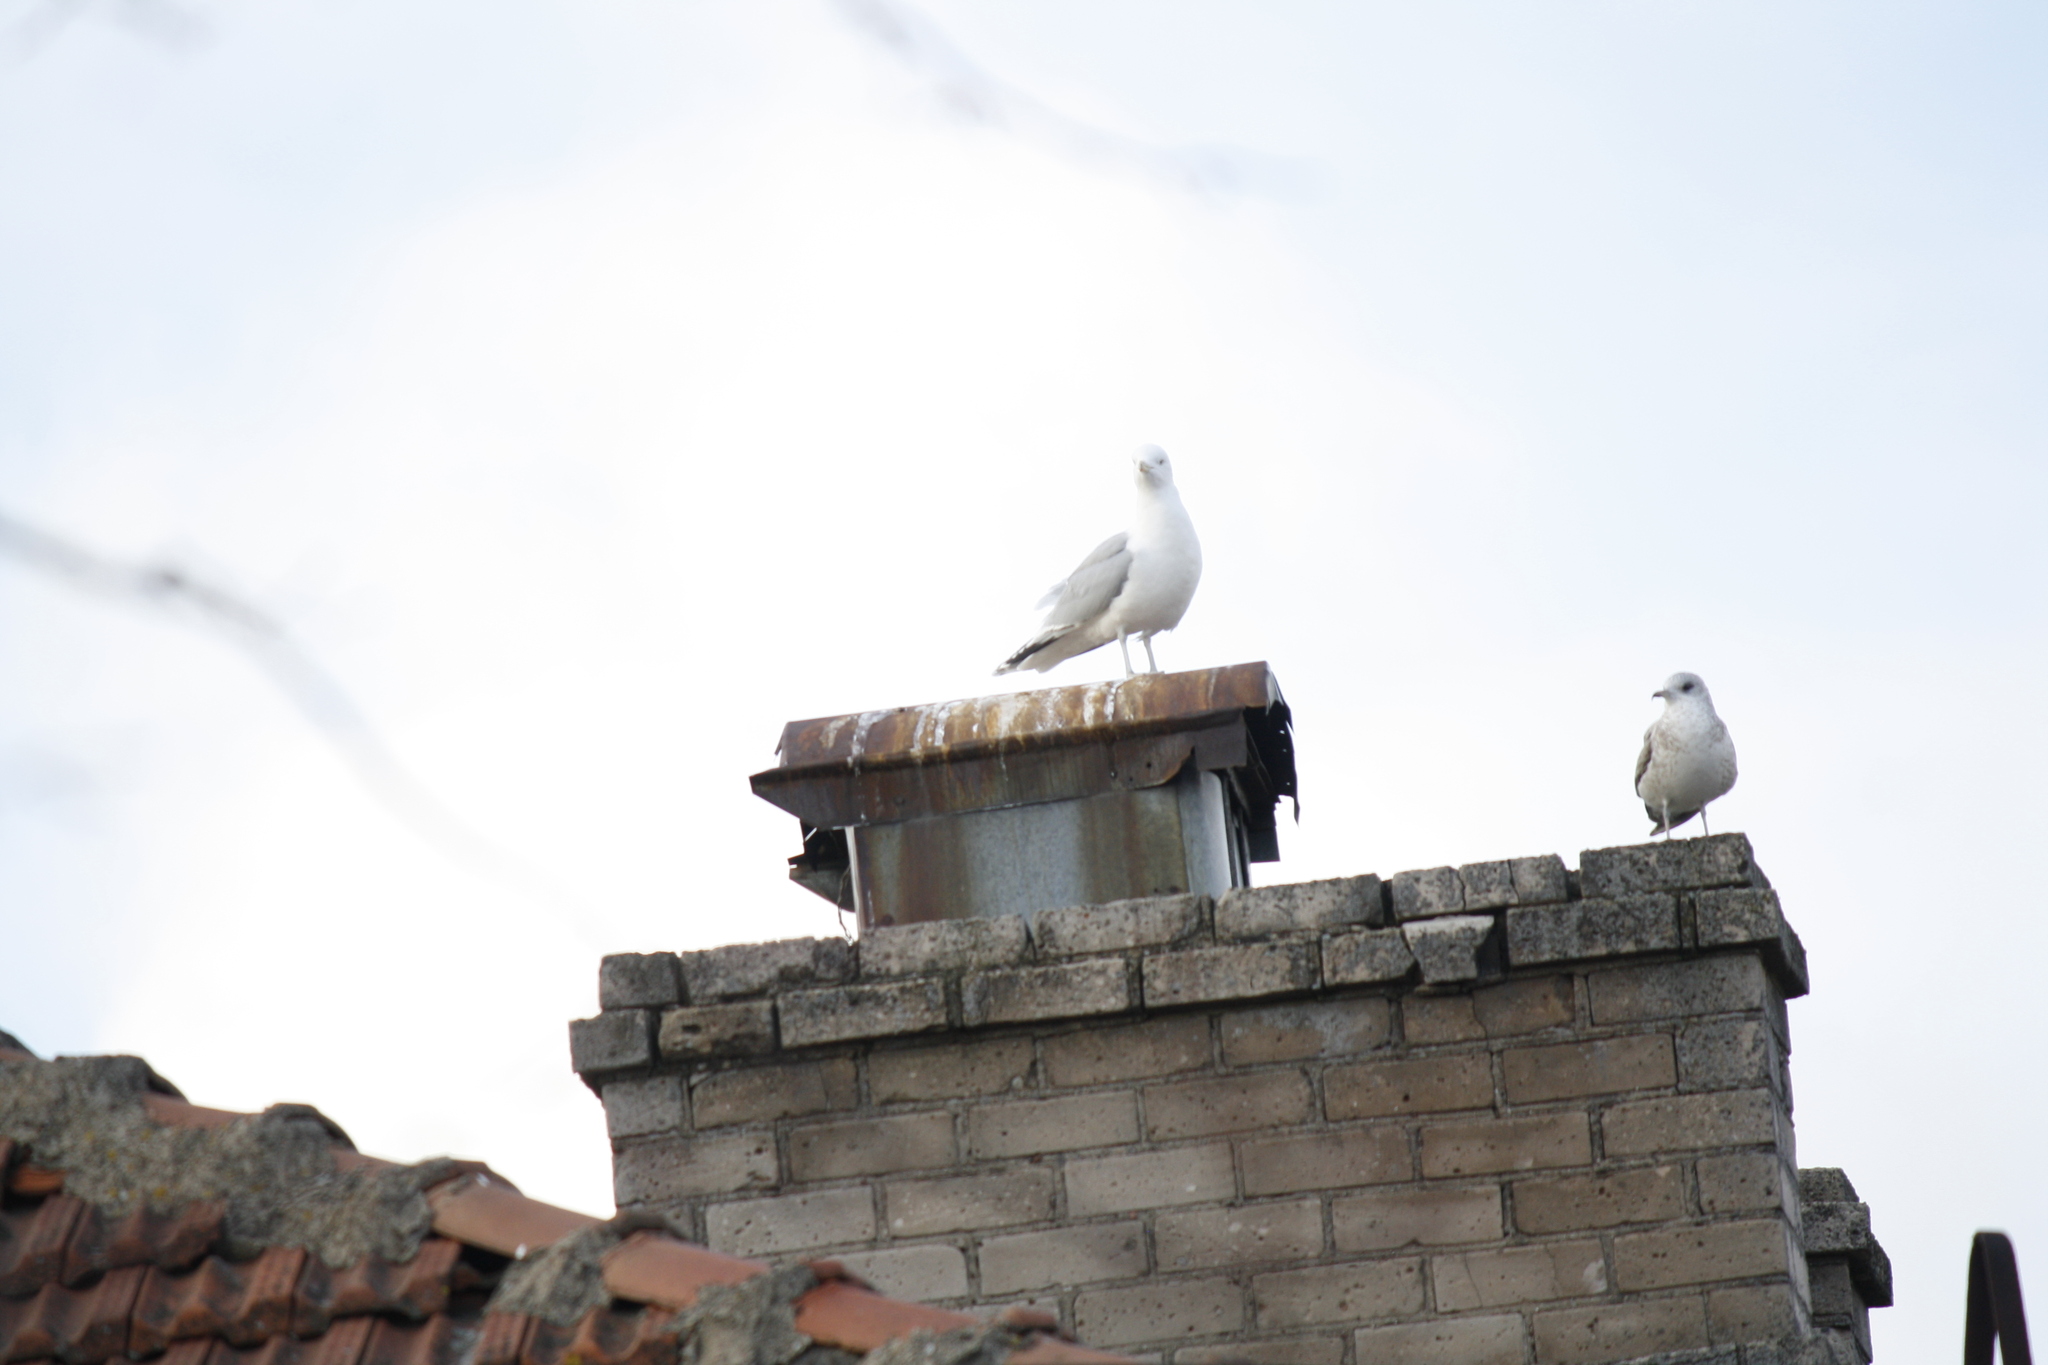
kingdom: Animalia
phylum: Chordata
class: Aves
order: Charadriiformes
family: Laridae
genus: Larus
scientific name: Larus argentatus
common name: Herring gull
